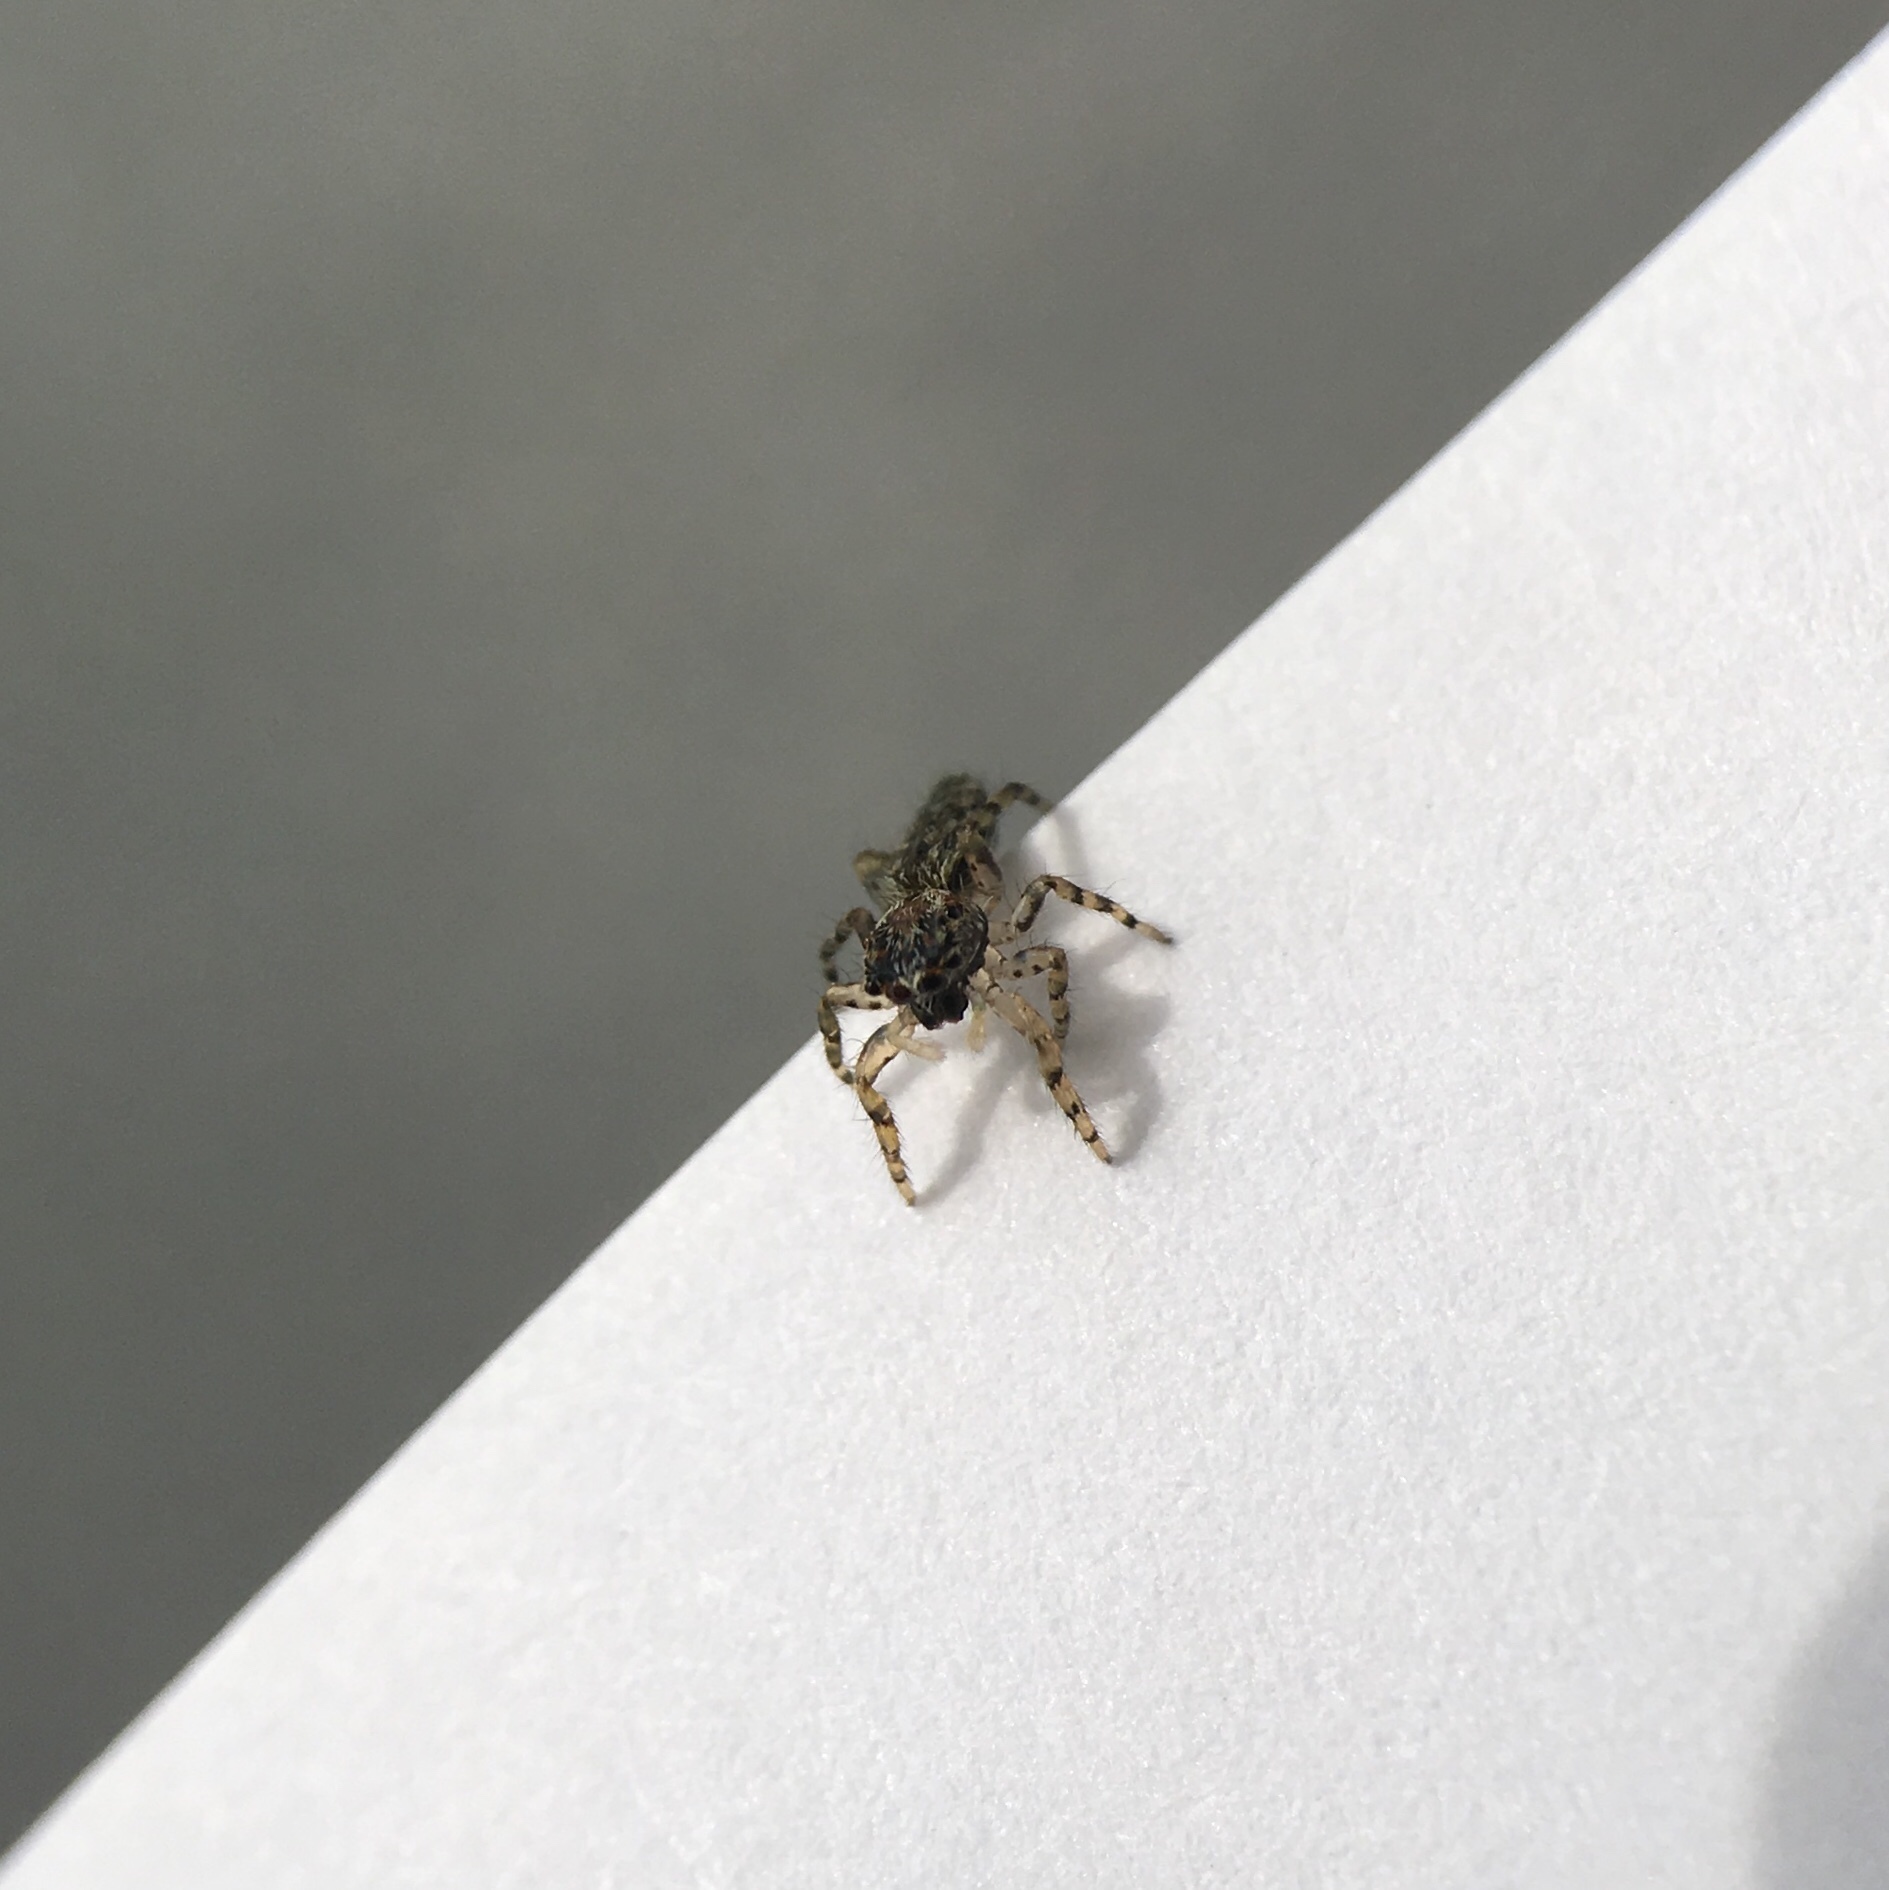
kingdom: Animalia
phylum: Arthropoda
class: Arachnida
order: Araneae
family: Salticidae
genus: Platycryptus
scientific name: Platycryptus undatus
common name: Tan jumping spider
